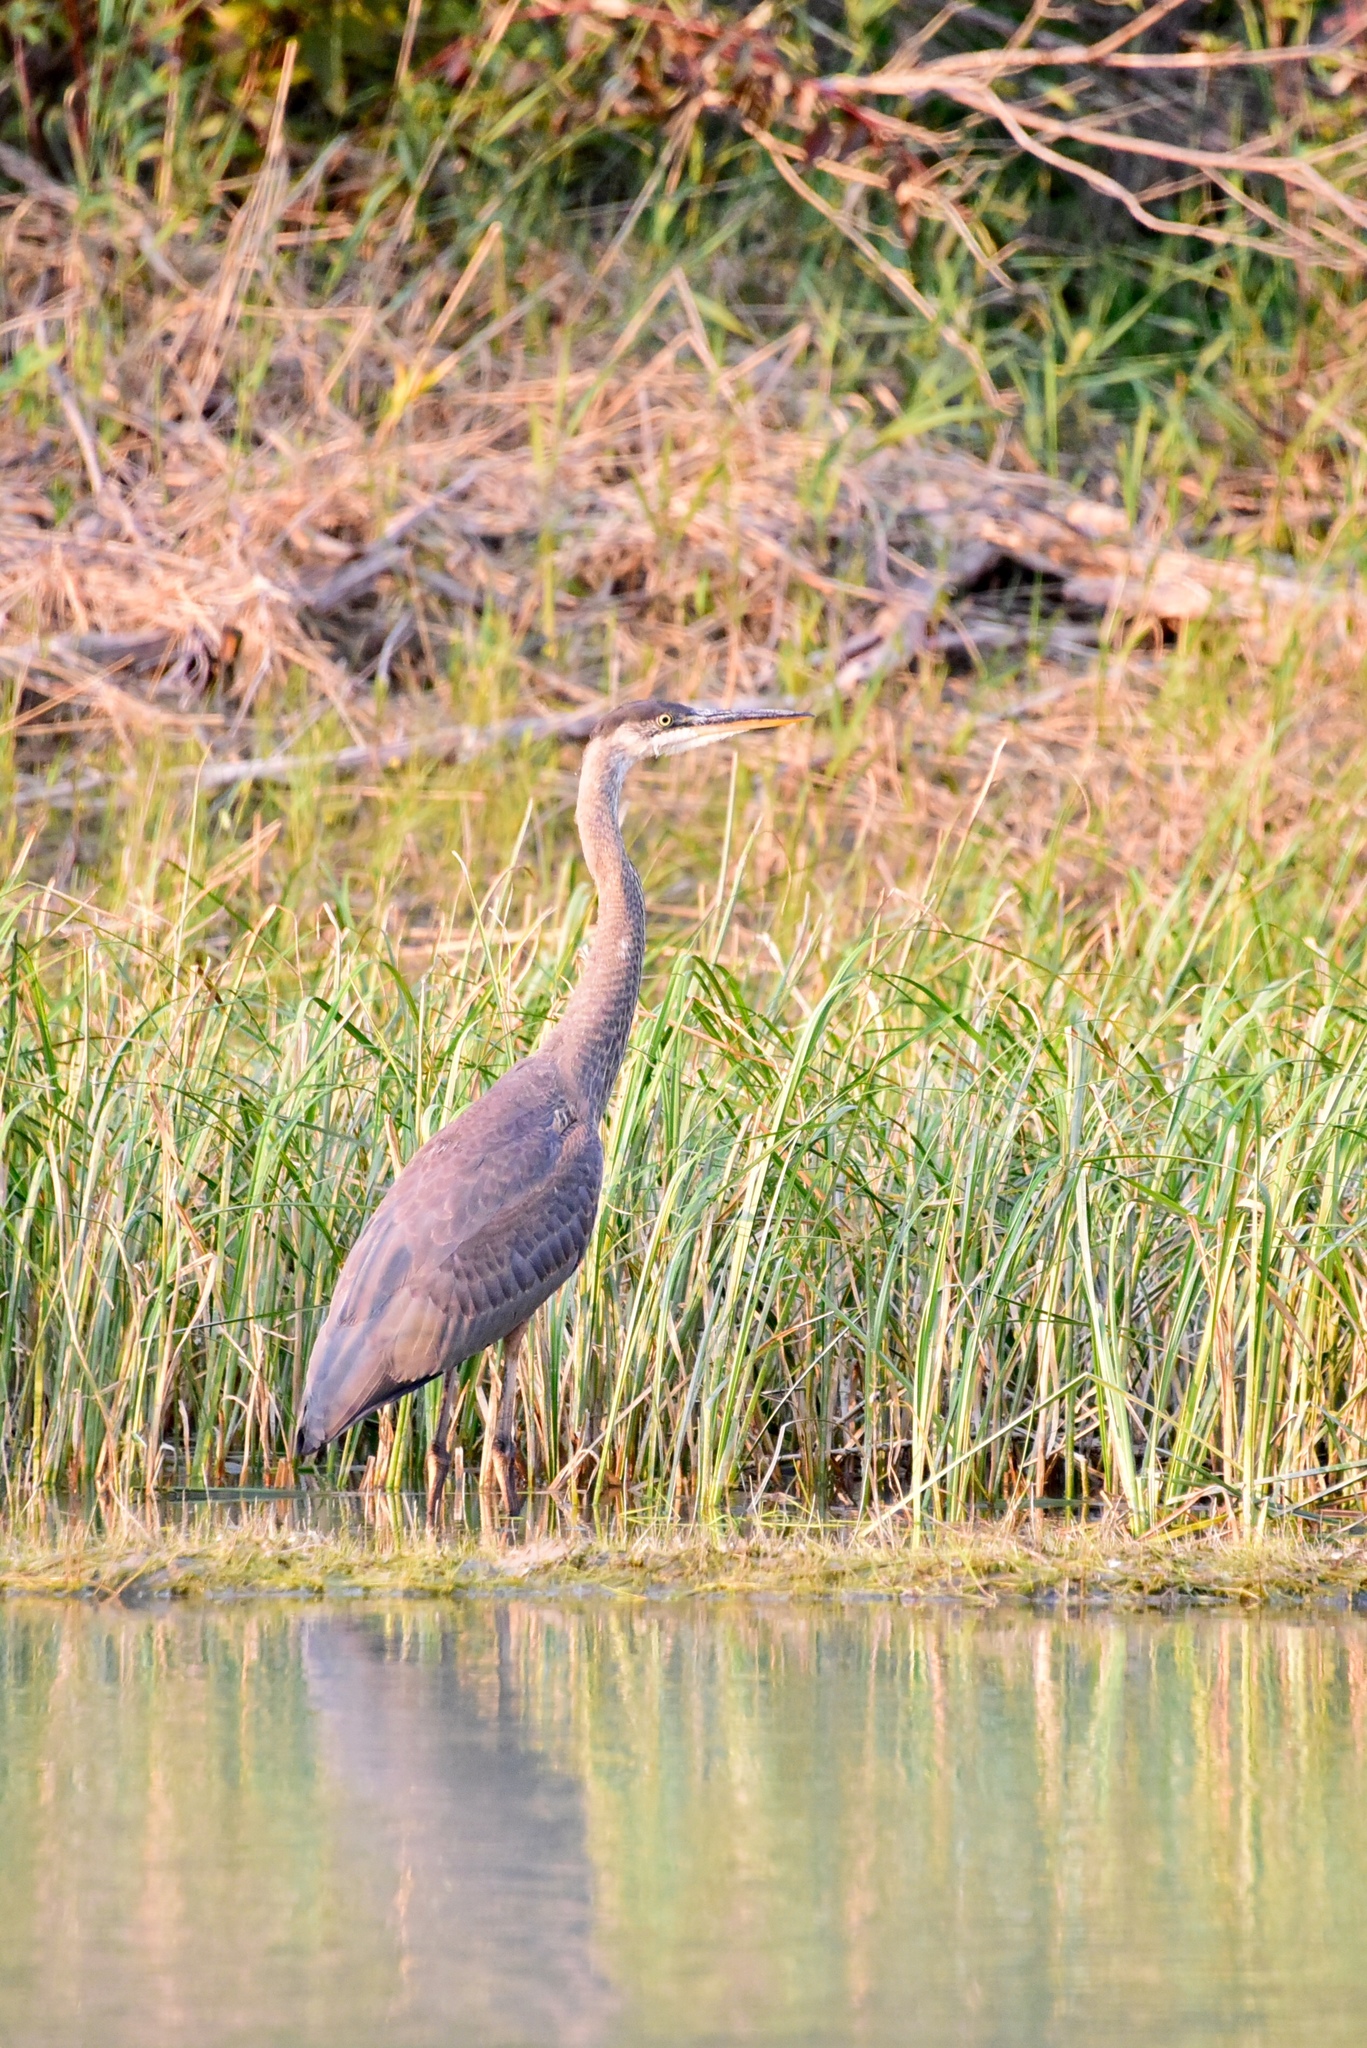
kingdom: Animalia
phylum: Chordata
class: Aves
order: Pelecaniformes
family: Ardeidae
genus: Ardea
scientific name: Ardea herodias
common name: Great blue heron
